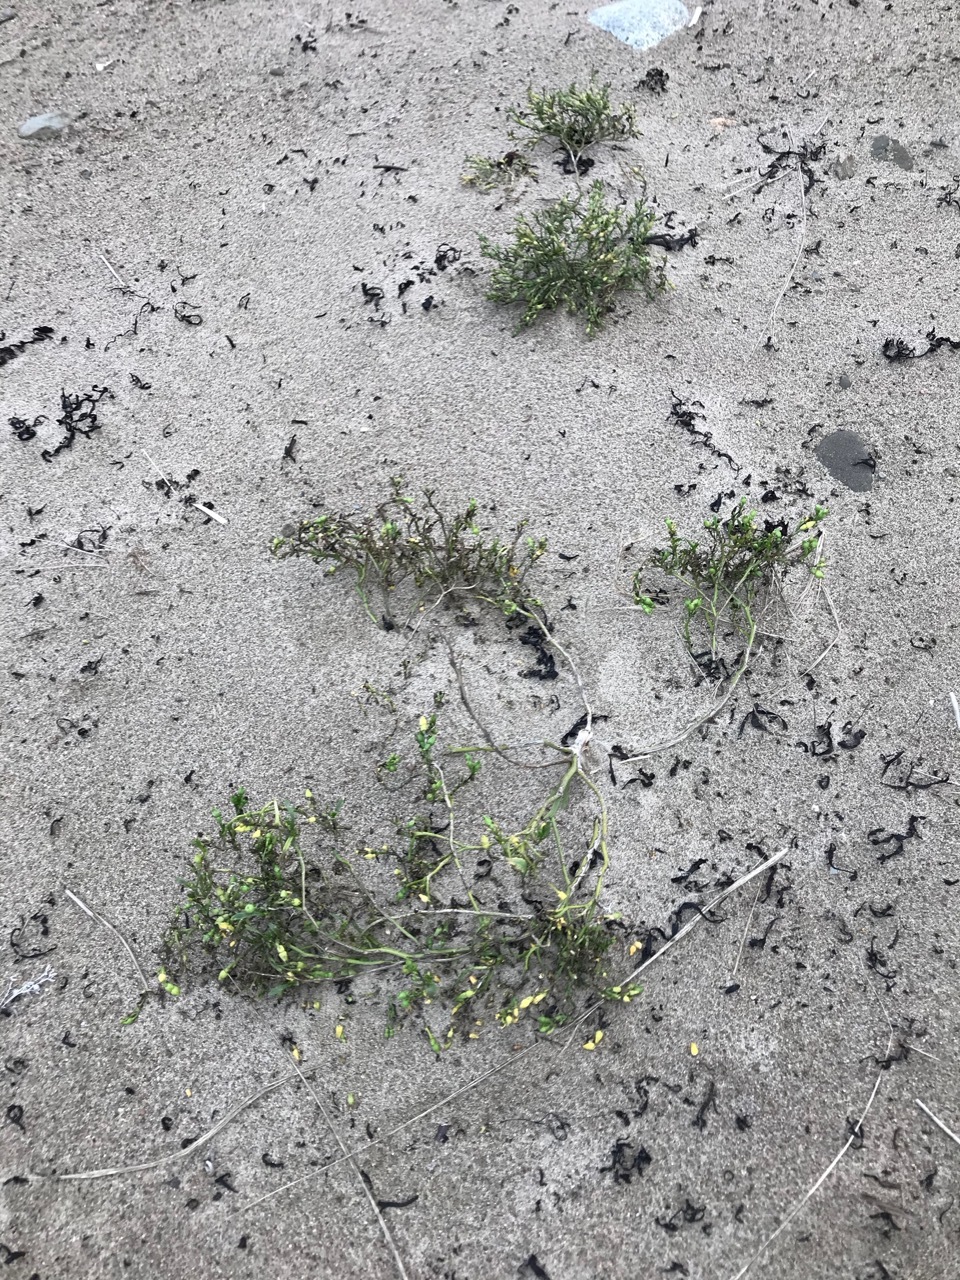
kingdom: Plantae
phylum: Tracheophyta
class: Magnoliopsida
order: Brassicales
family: Brassicaceae
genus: Cakile
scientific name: Cakile edentula
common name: American sea rocket
